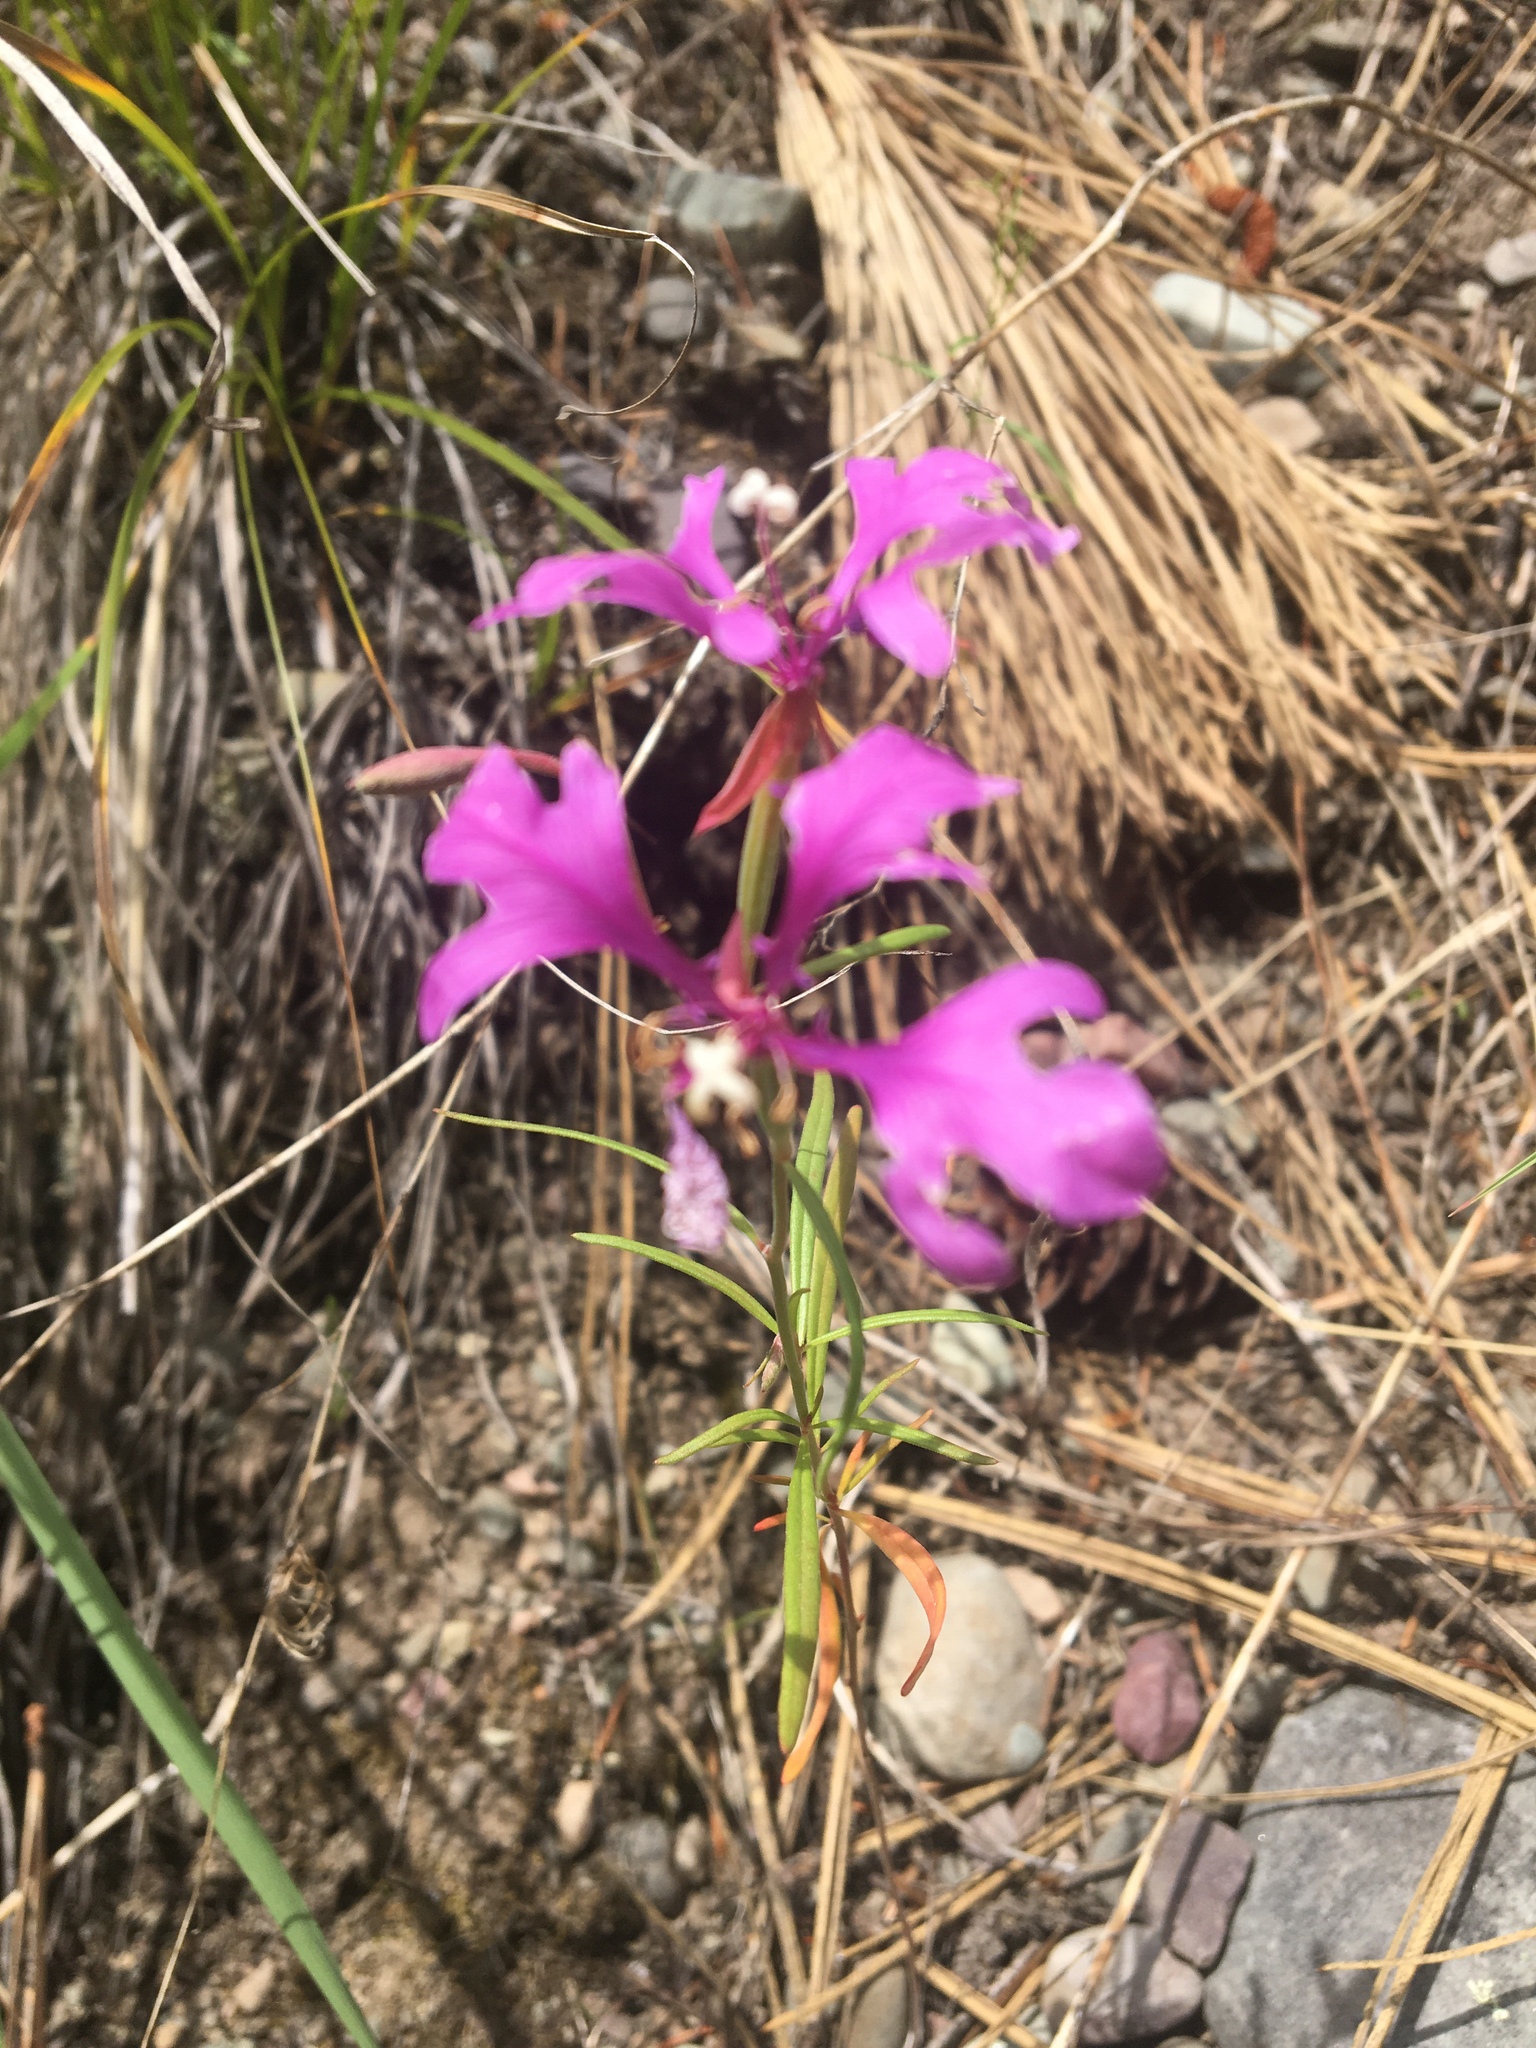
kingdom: Plantae
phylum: Tracheophyta
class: Magnoliopsida
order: Myrtales
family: Onagraceae
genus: Clarkia
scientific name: Clarkia pulchella
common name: Deer horn
